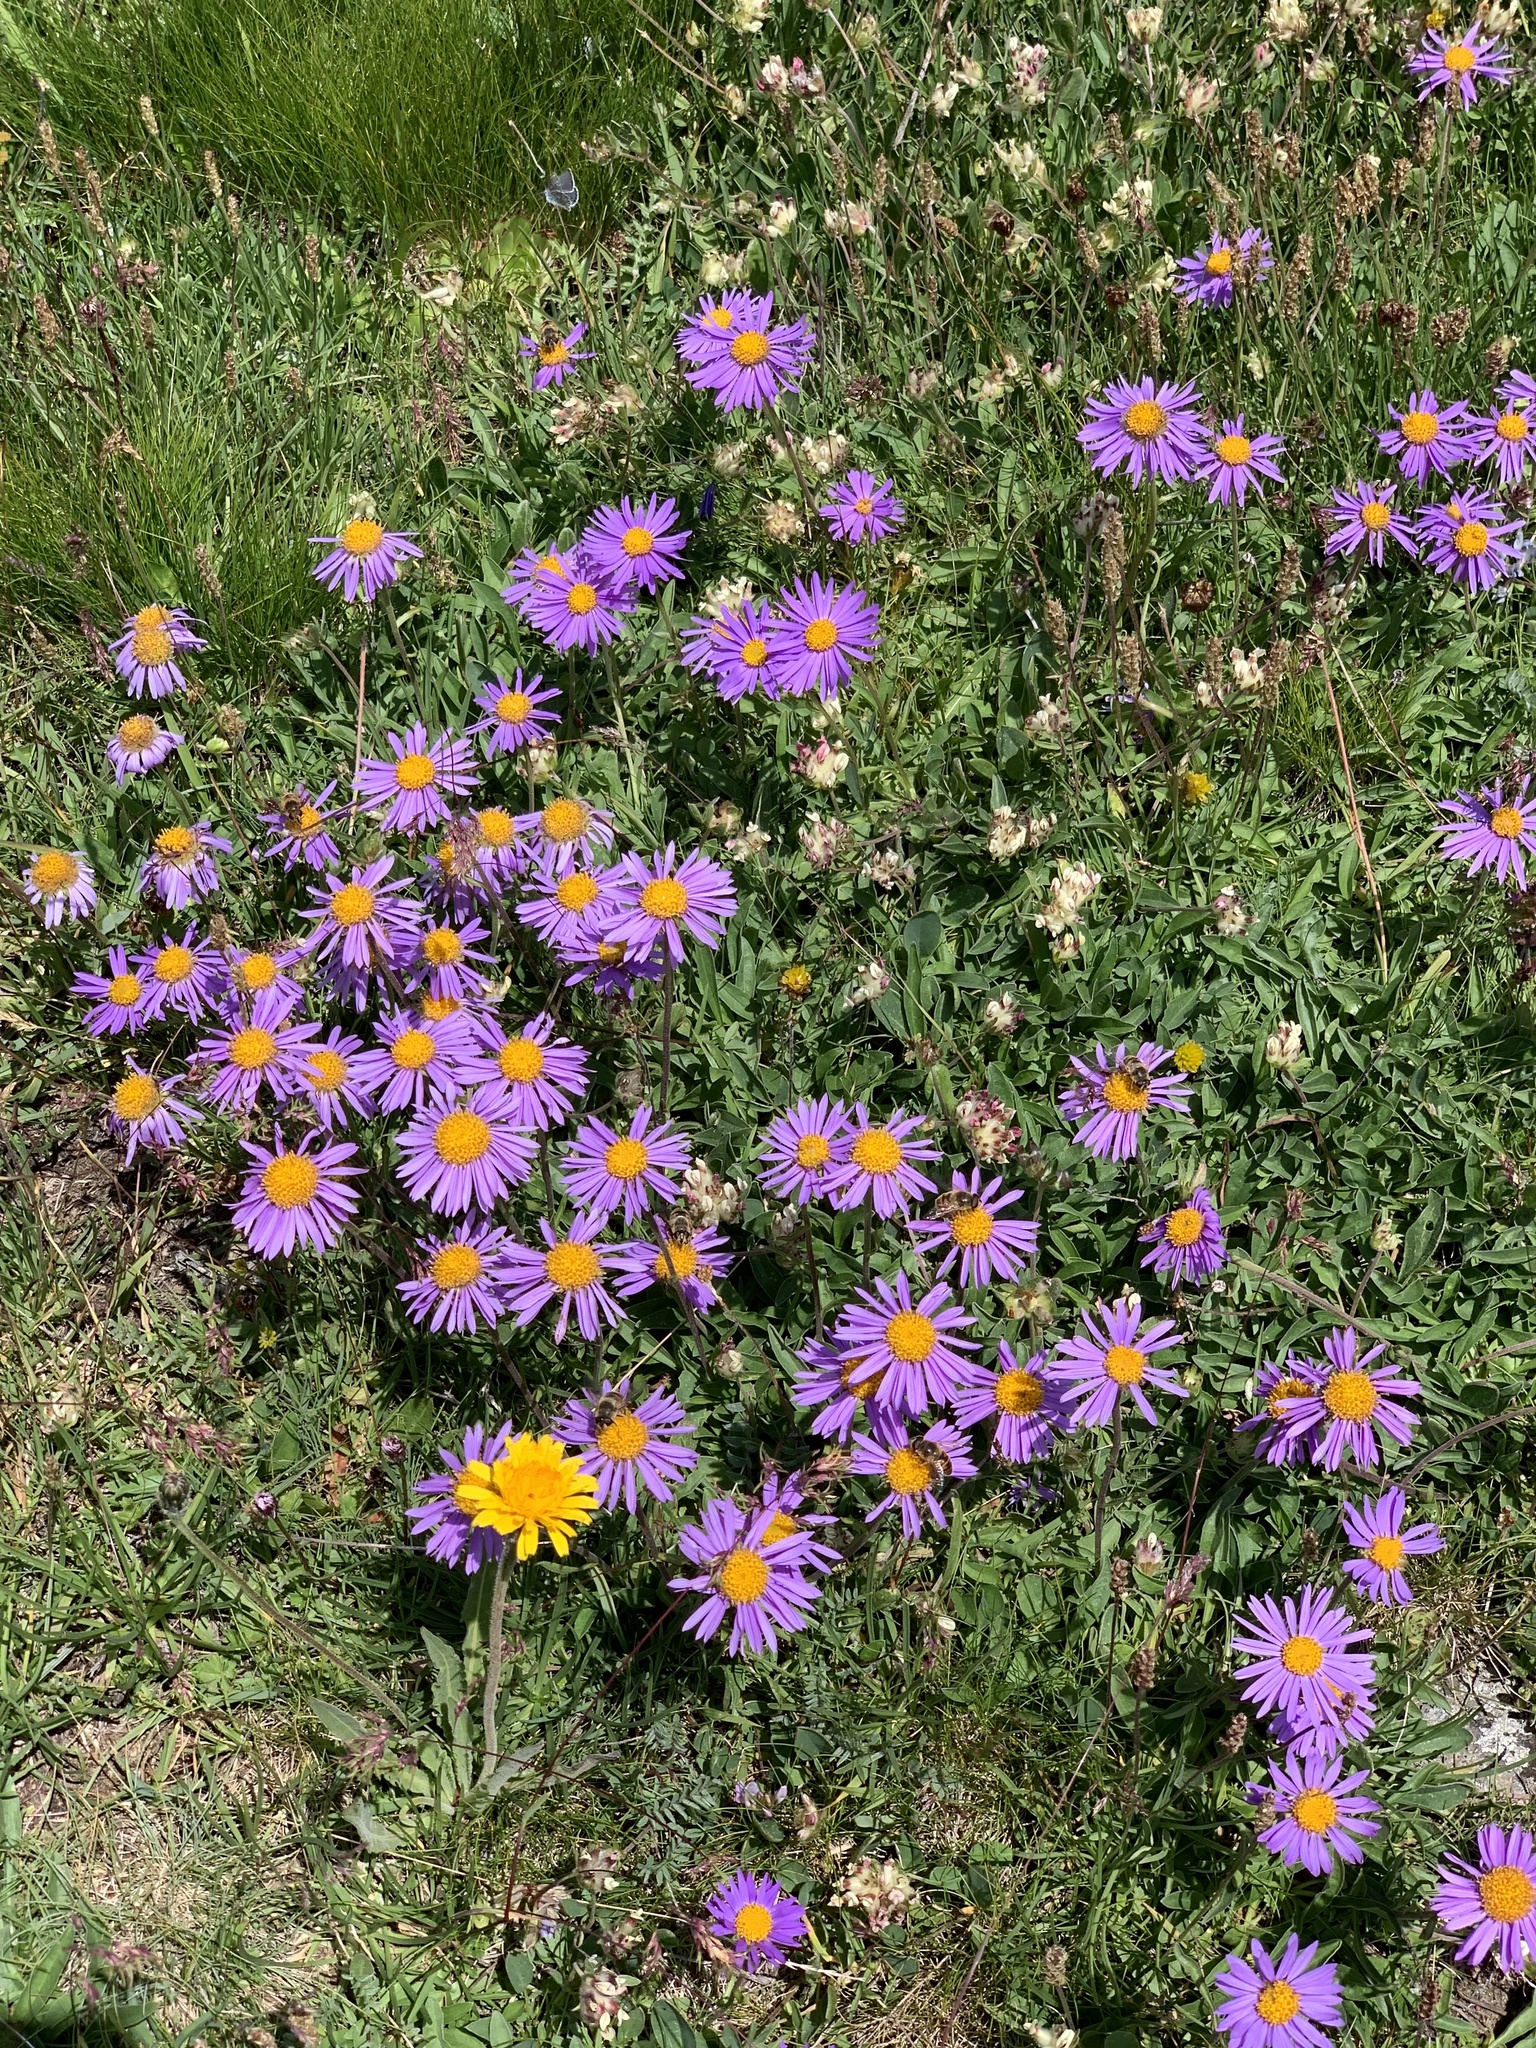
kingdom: Plantae
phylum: Tracheophyta
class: Magnoliopsida
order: Asterales
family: Asteraceae
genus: Aster
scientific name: Aster alpinus
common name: Alpine aster
